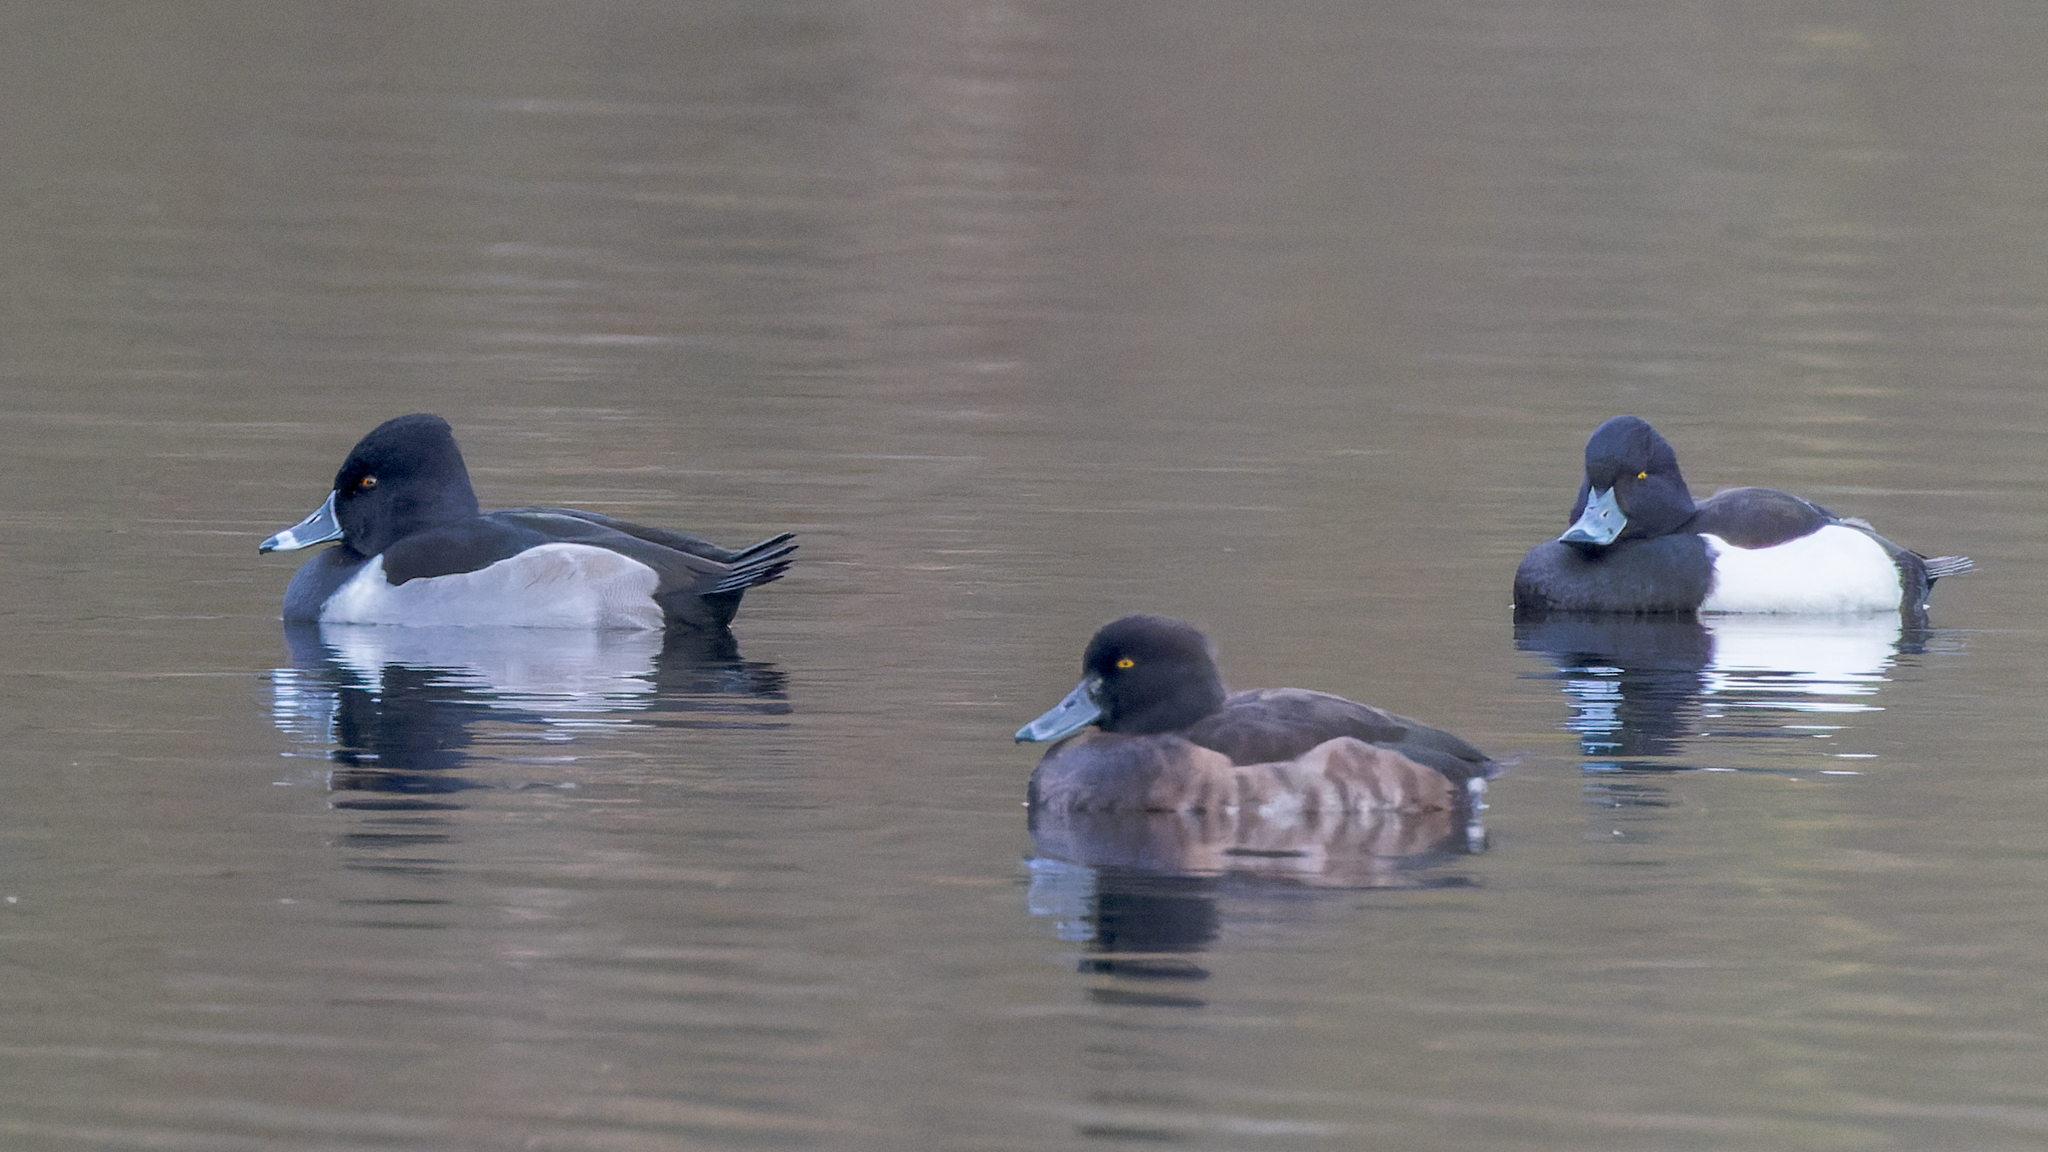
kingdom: Animalia
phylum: Chordata
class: Aves
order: Anseriformes
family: Anatidae
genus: Aythya
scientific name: Aythya fuligula
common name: Tufted duck
